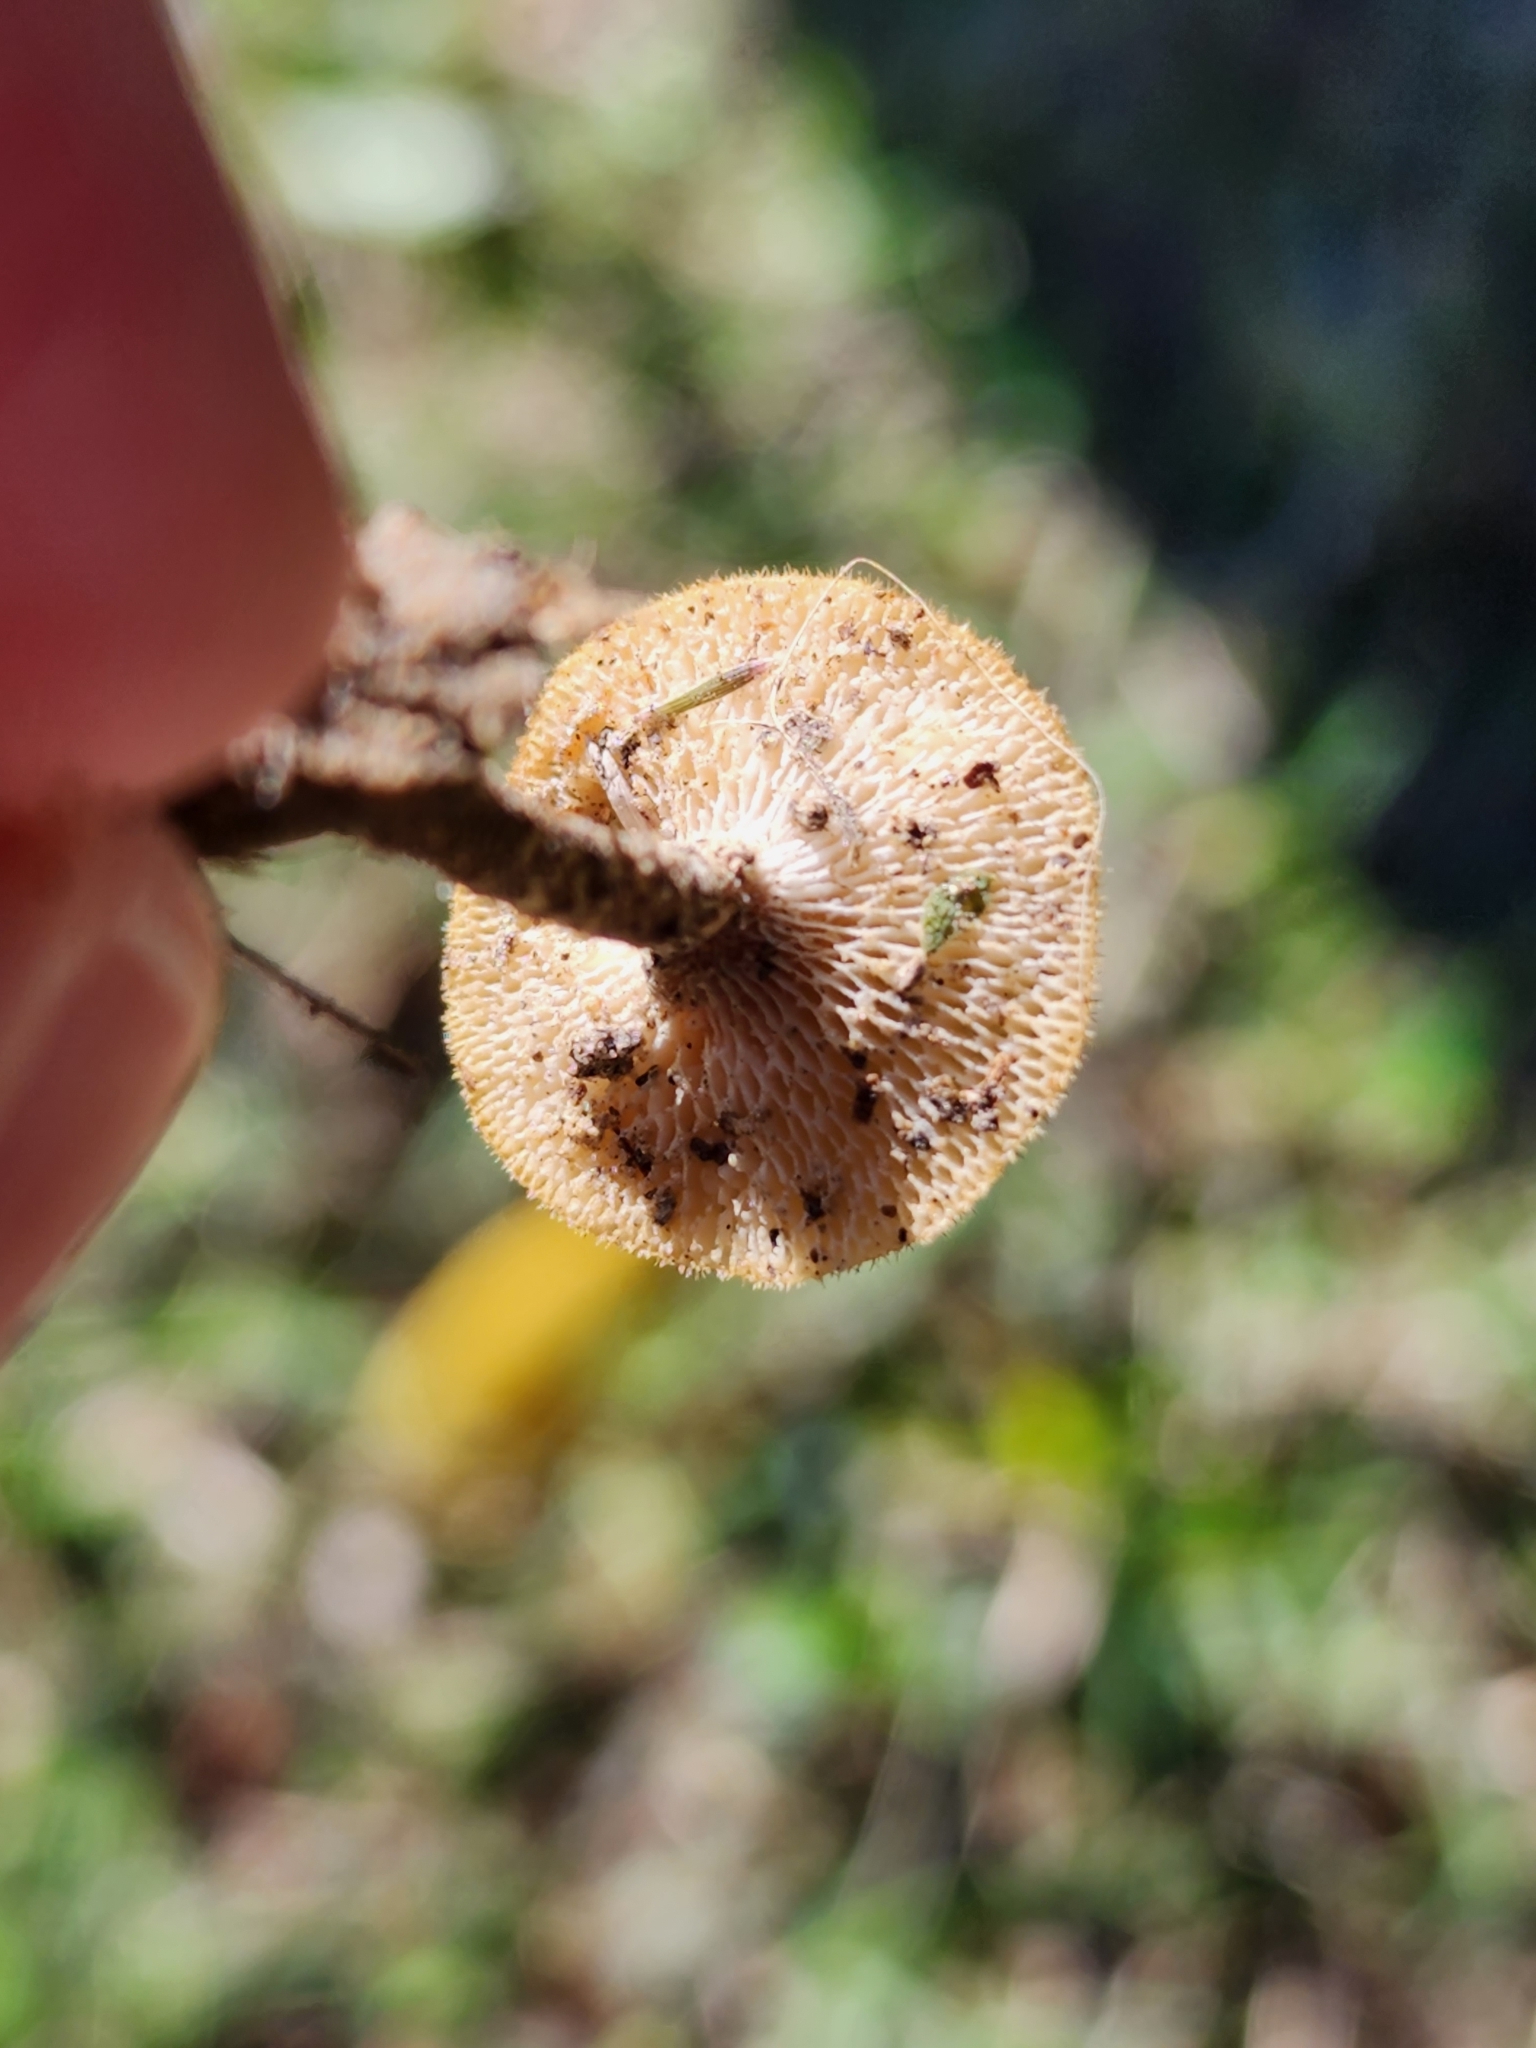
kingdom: Fungi
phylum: Basidiomycota
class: Agaricomycetes
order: Polyporales
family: Polyporaceae
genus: Lentinus
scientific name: Lentinus arcularius
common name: Spring polypore
